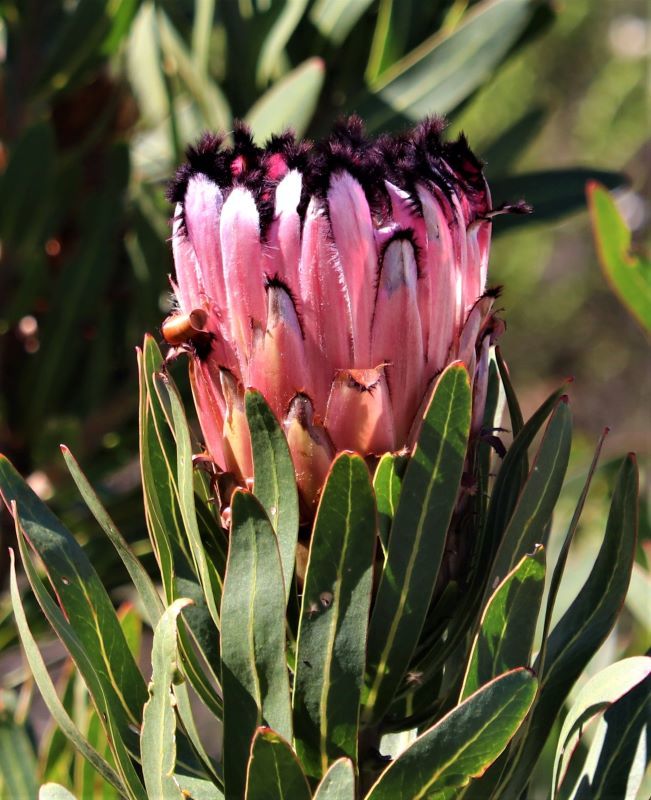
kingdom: Plantae
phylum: Tracheophyta
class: Magnoliopsida
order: Proteales
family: Proteaceae
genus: Protea
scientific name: Protea neriifolia
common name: Blue sugarbush
